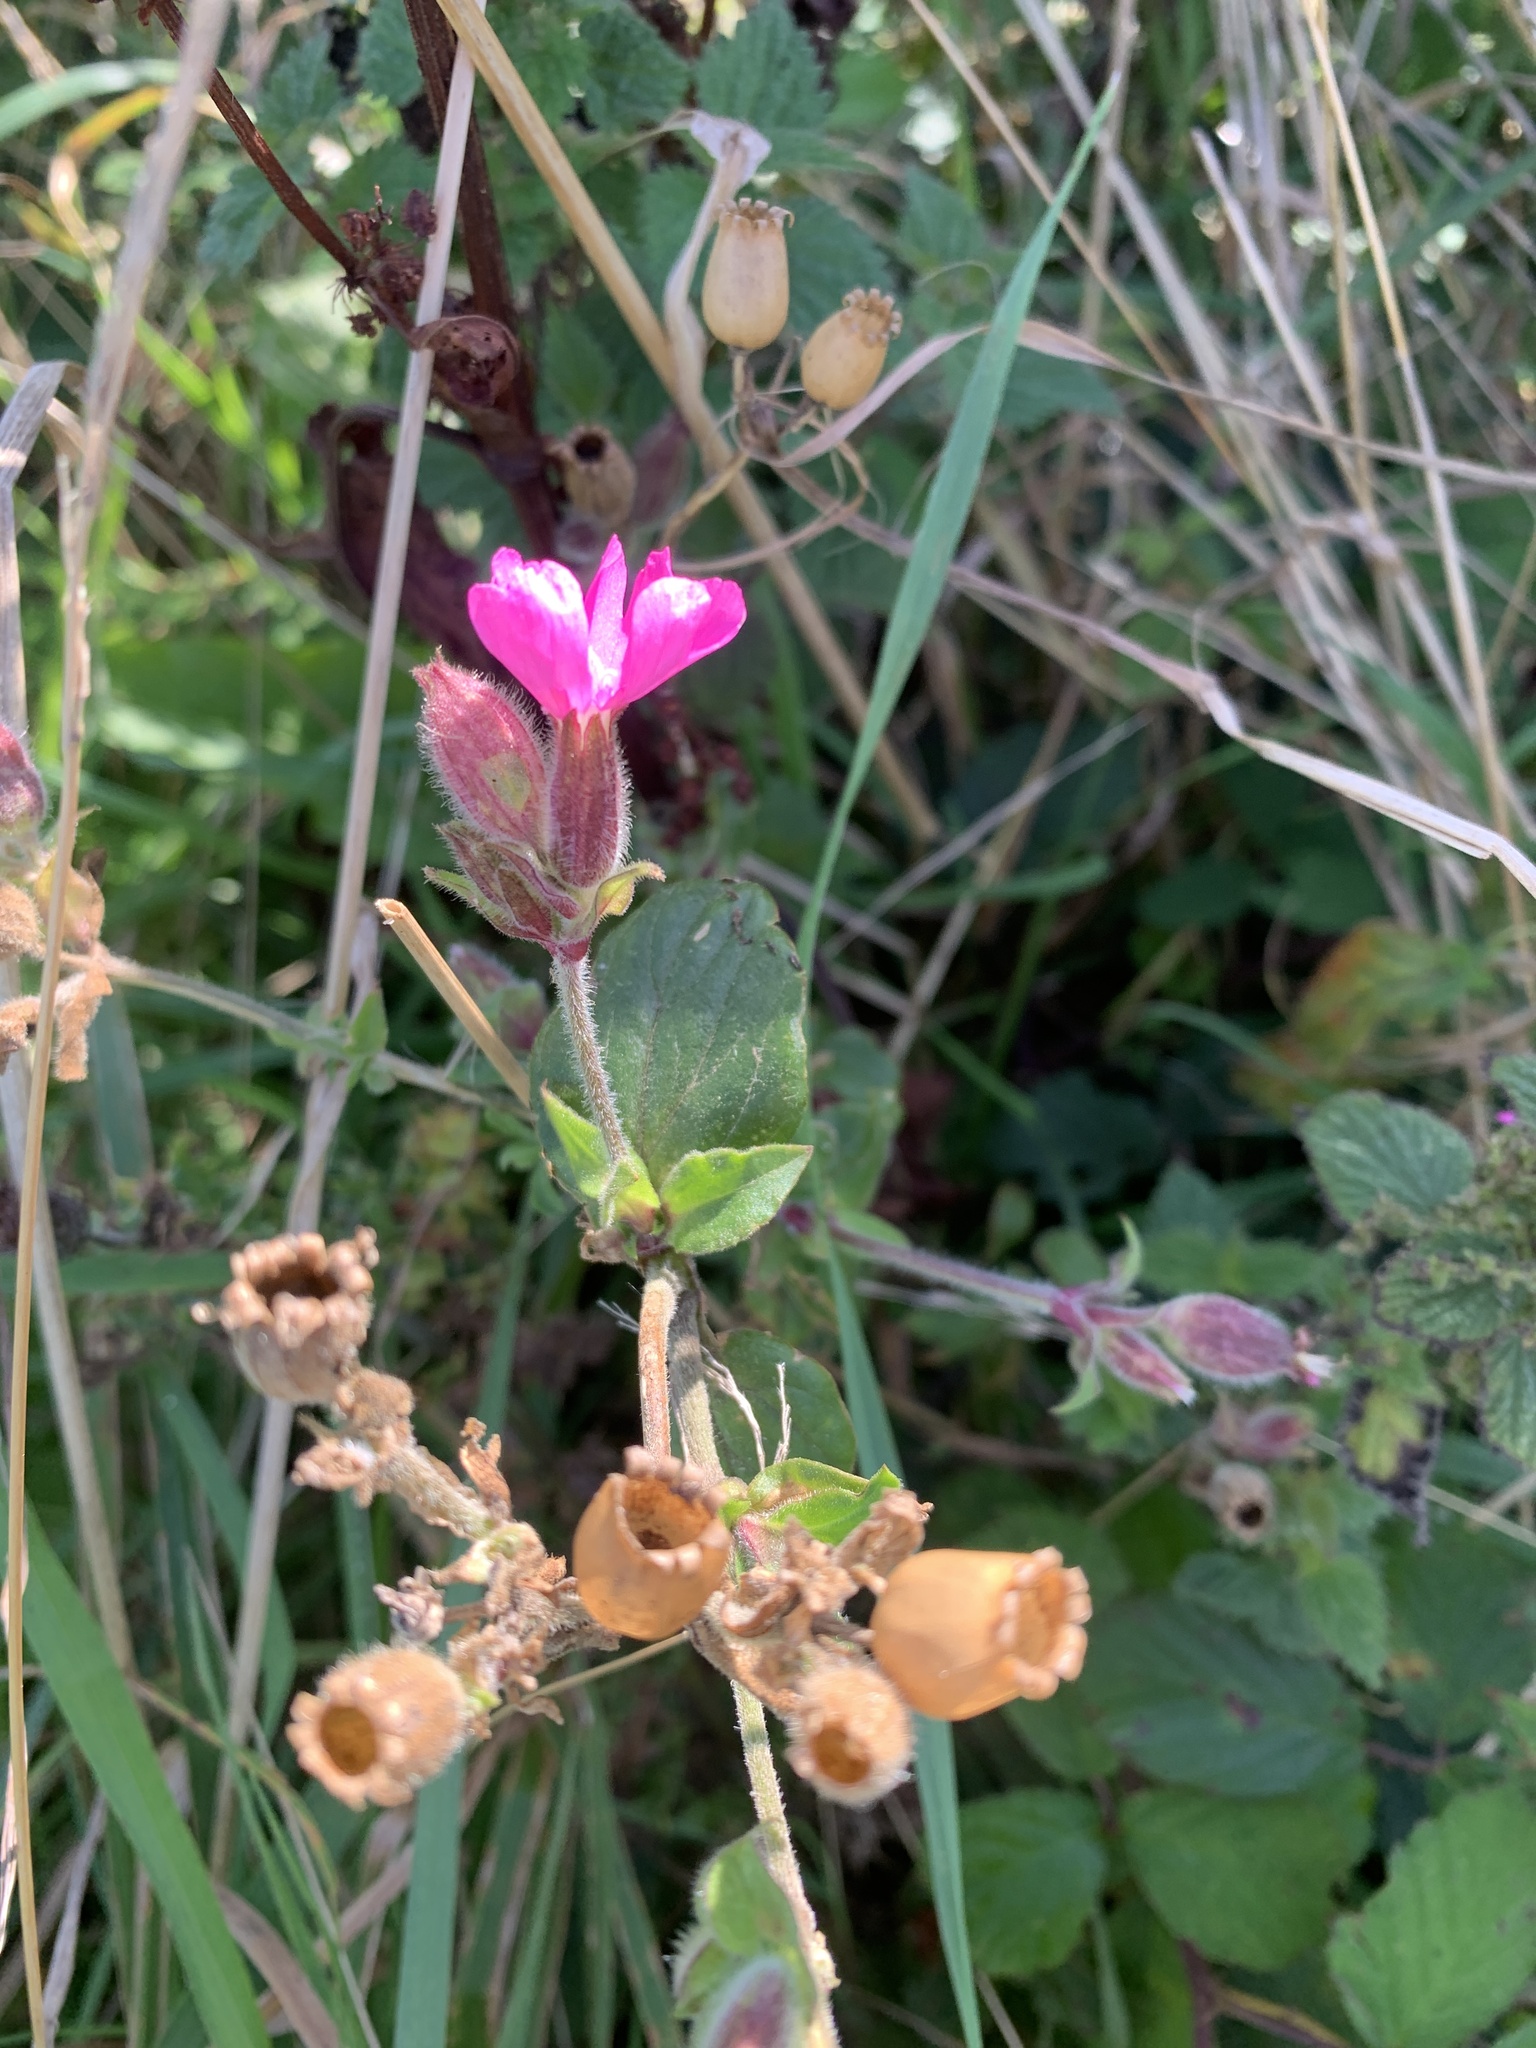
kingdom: Plantae
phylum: Tracheophyta
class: Magnoliopsida
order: Caryophyllales
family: Caryophyllaceae
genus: Silene
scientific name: Silene dioica
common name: Red campion
